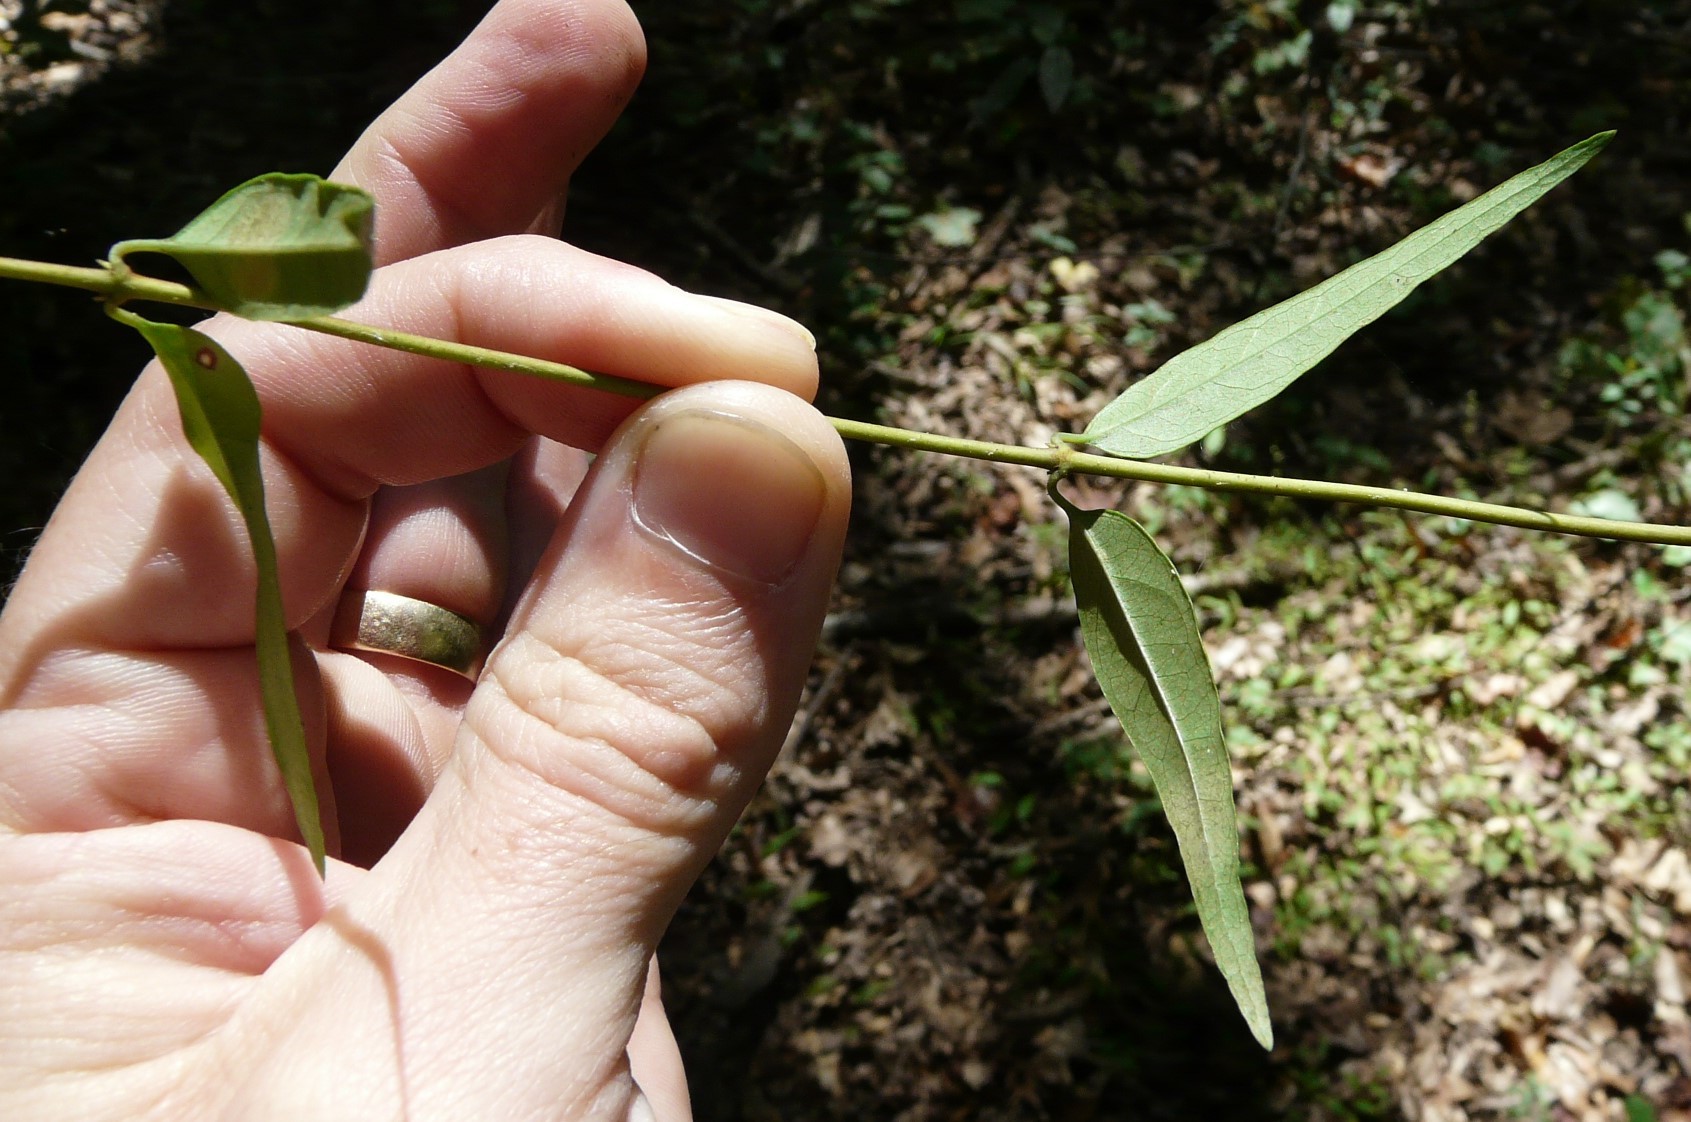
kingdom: Plantae
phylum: Tracheophyta
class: Magnoliopsida
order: Gentianales
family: Gelsemiaceae
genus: Gelsemium
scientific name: Gelsemium sempervirens
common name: Carolina-jasmine
